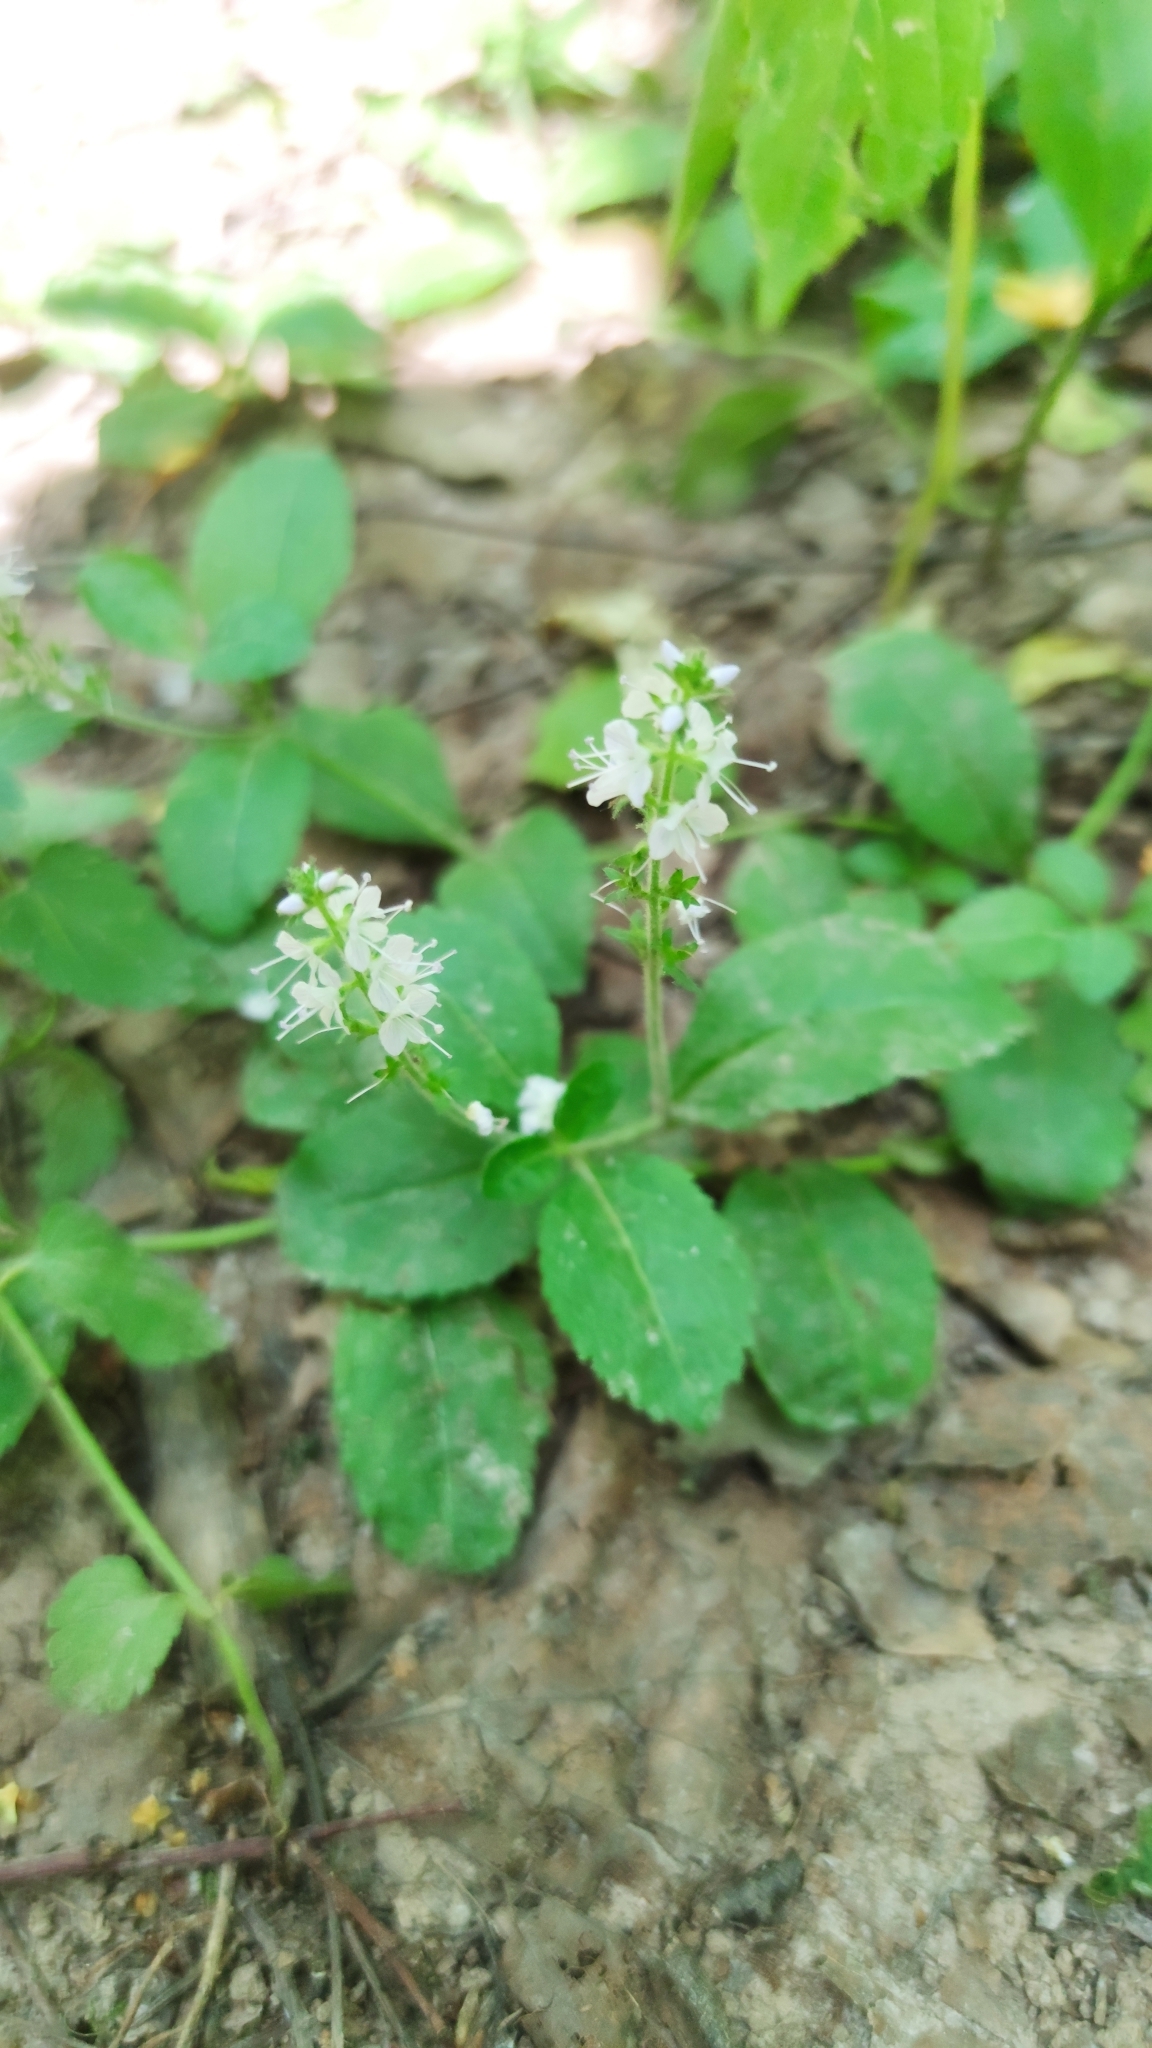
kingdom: Plantae
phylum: Tracheophyta
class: Magnoliopsida
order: Lamiales
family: Plantaginaceae
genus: Veronica
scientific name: Veronica officinalis
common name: Common speedwell
